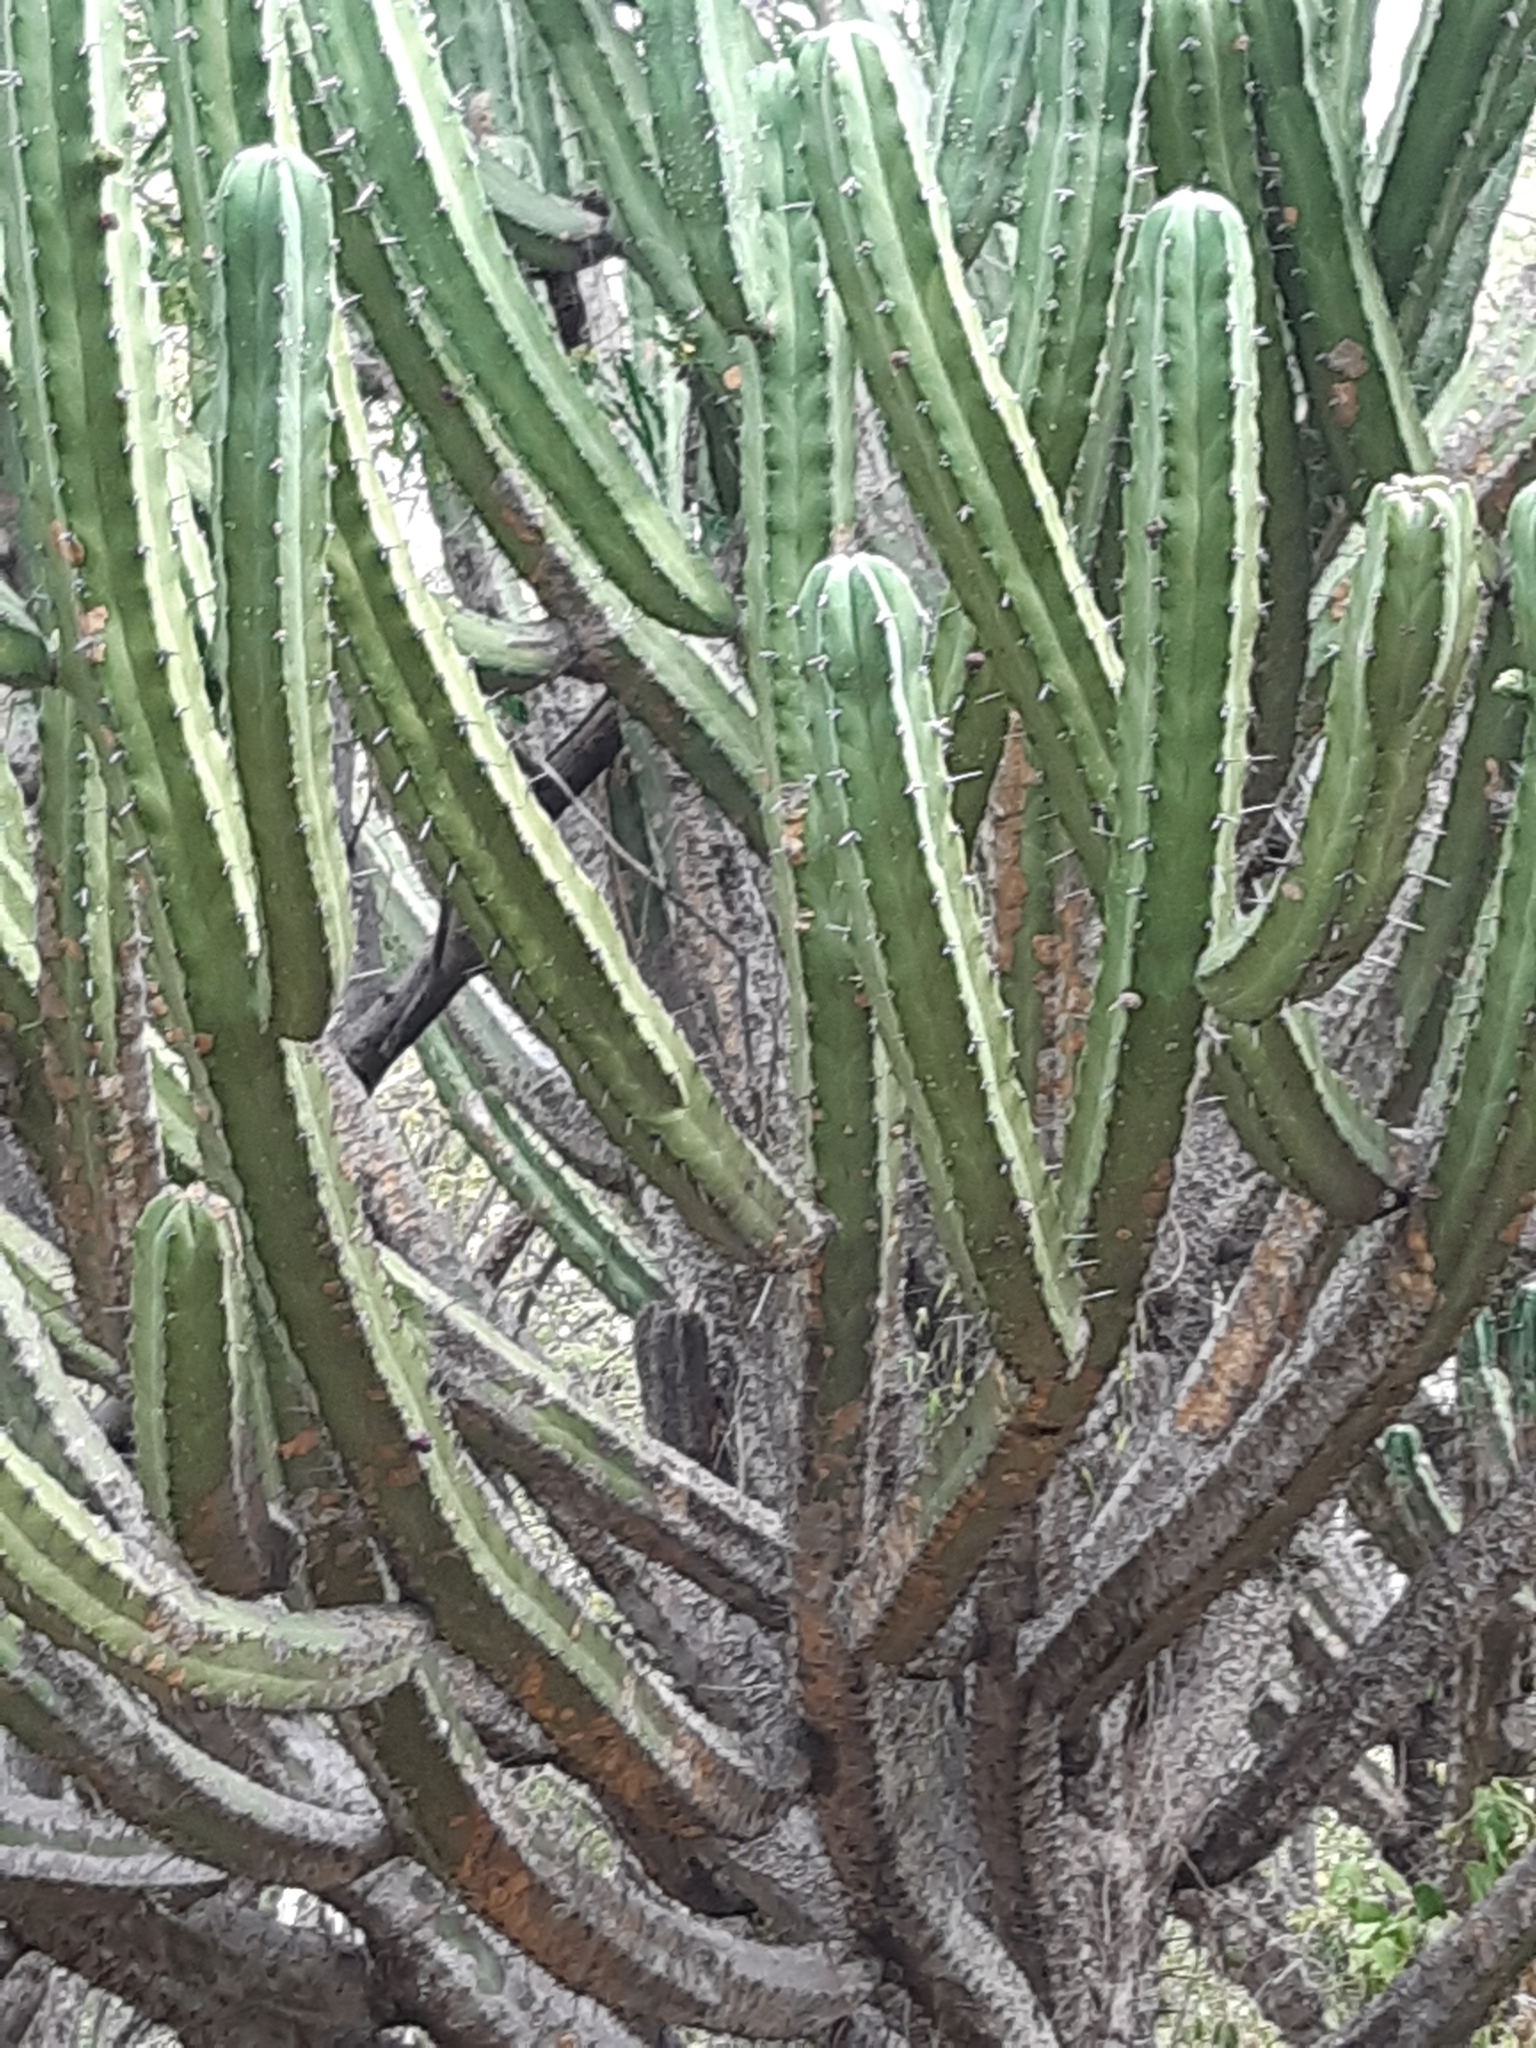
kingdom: Plantae
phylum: Tracheophyta
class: Magnoliopsida
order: Caryophyllales
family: Cactaceae
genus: Myrtillocactus
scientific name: Myrtillocactus geometrizans
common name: Bilberry cactus
